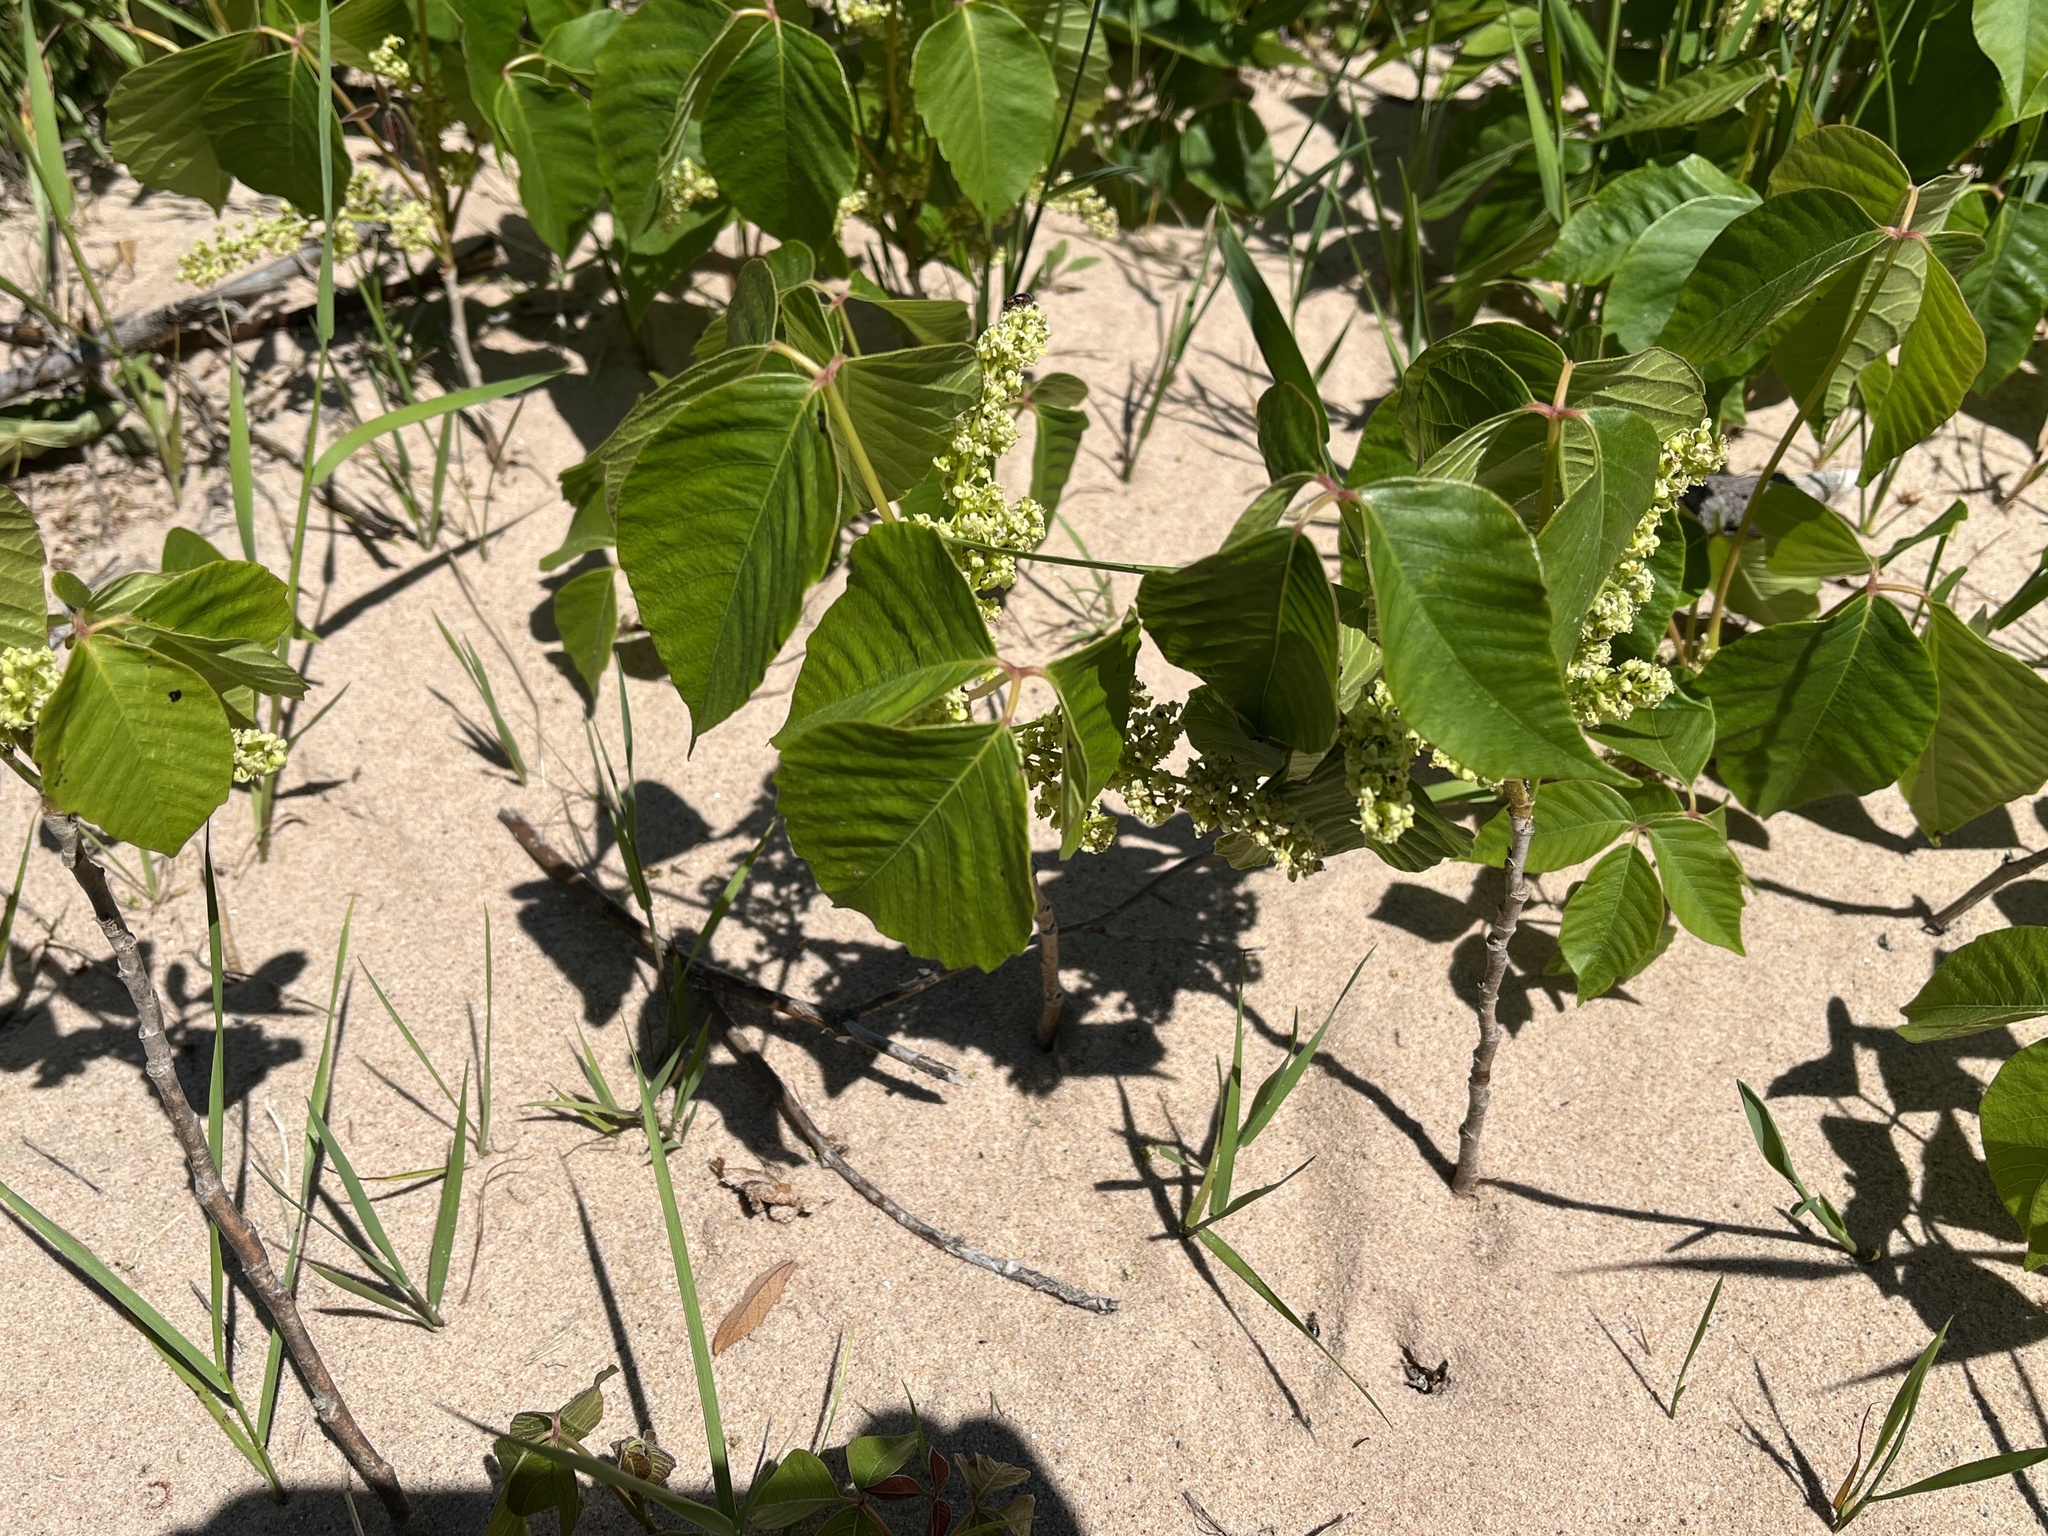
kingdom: Plantae
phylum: Tracheophyta
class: Magnoliopsida
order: Sapindales
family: Anacardiaceae
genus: Toxicodendron
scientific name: Toxicodendron rydbergii
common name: Rydberg's poison-ivy
